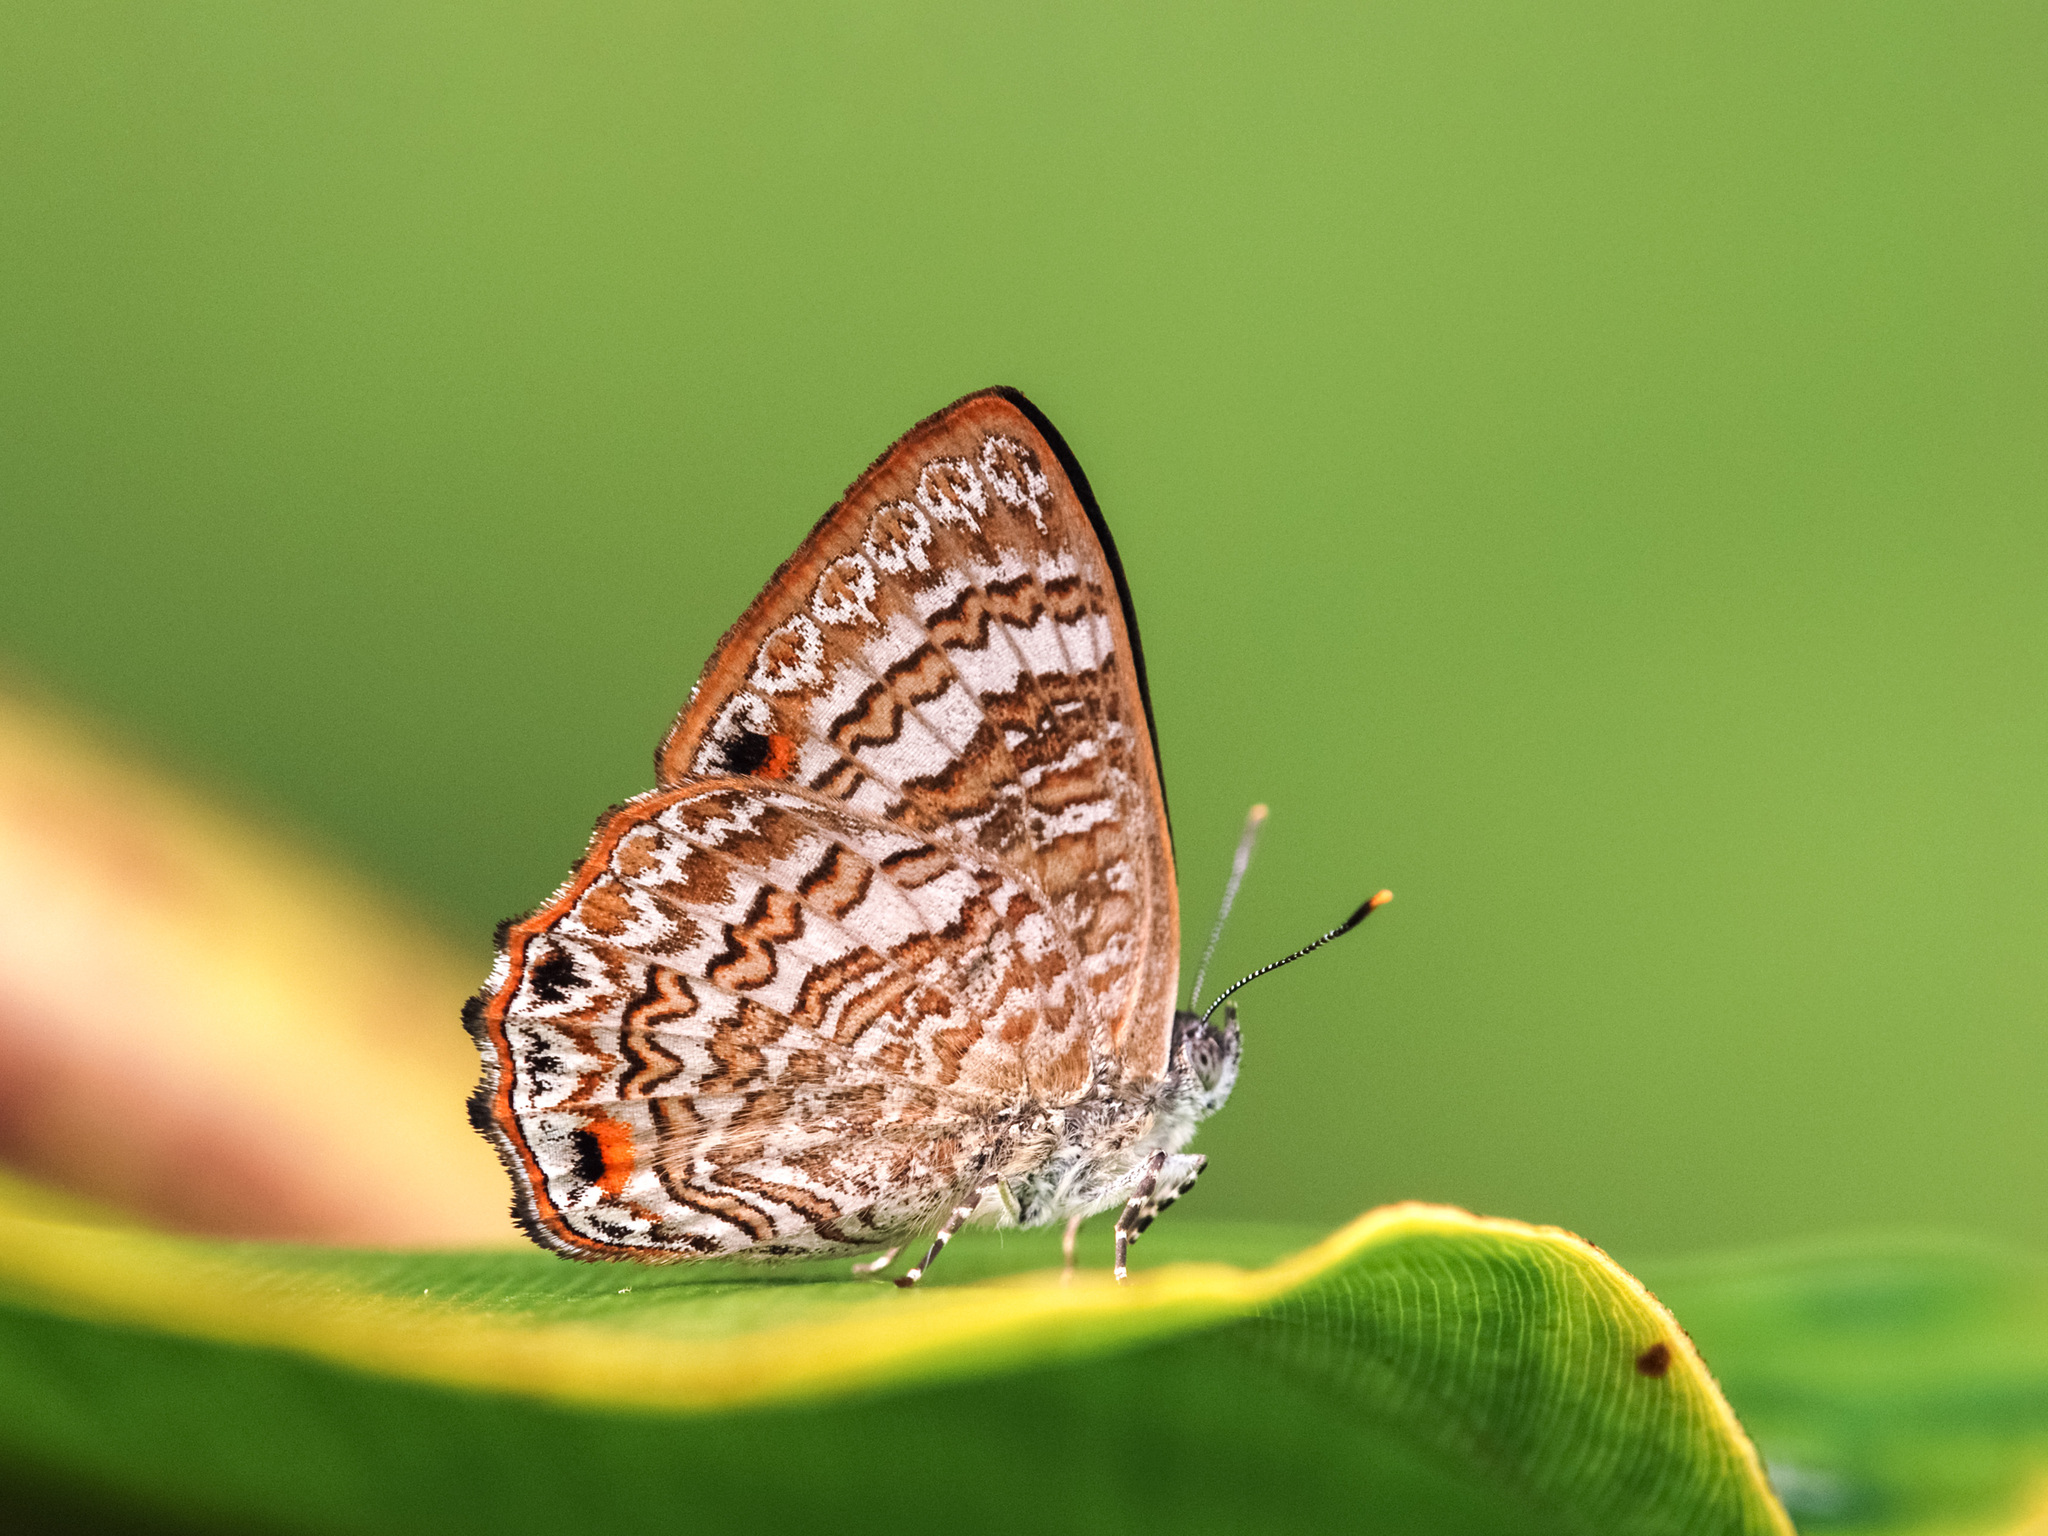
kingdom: Animalia
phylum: Arthropoda
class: Insecta
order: Lepidoptera
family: Lycaenidae
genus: Poritia
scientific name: Poritia pleurata
